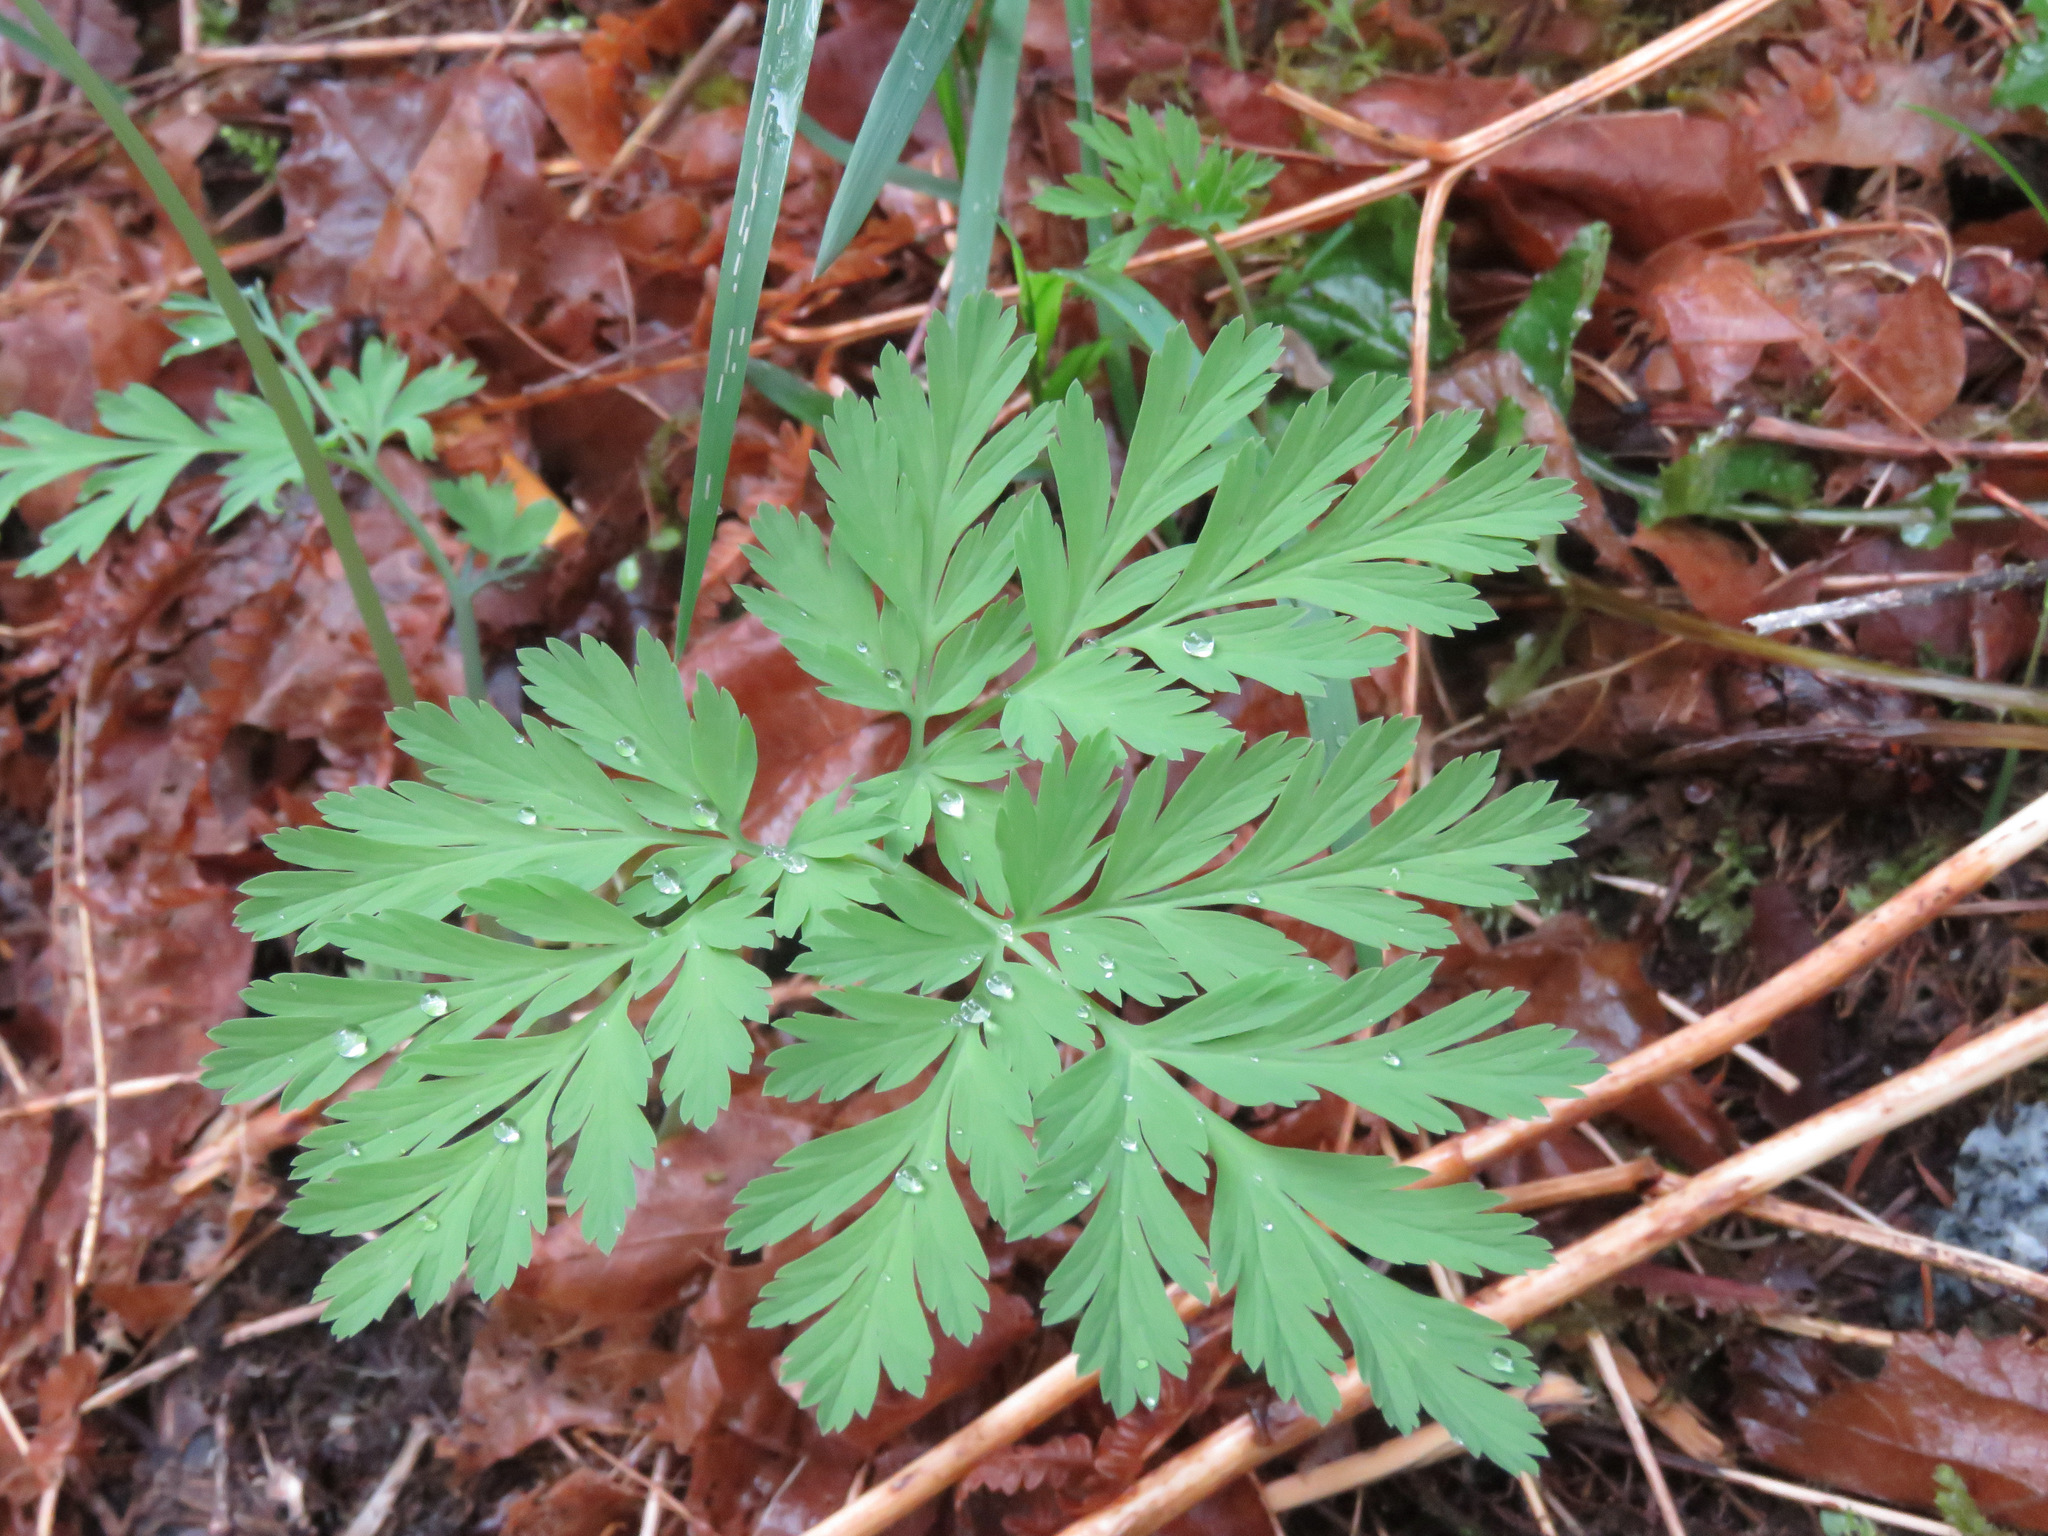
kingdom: Plantae
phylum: Tracheophyta
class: Magnoliopsida
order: Ranunculales
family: Papaveraceae
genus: Dicentra
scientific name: Dicentra formosa
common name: Bleeding-heart
